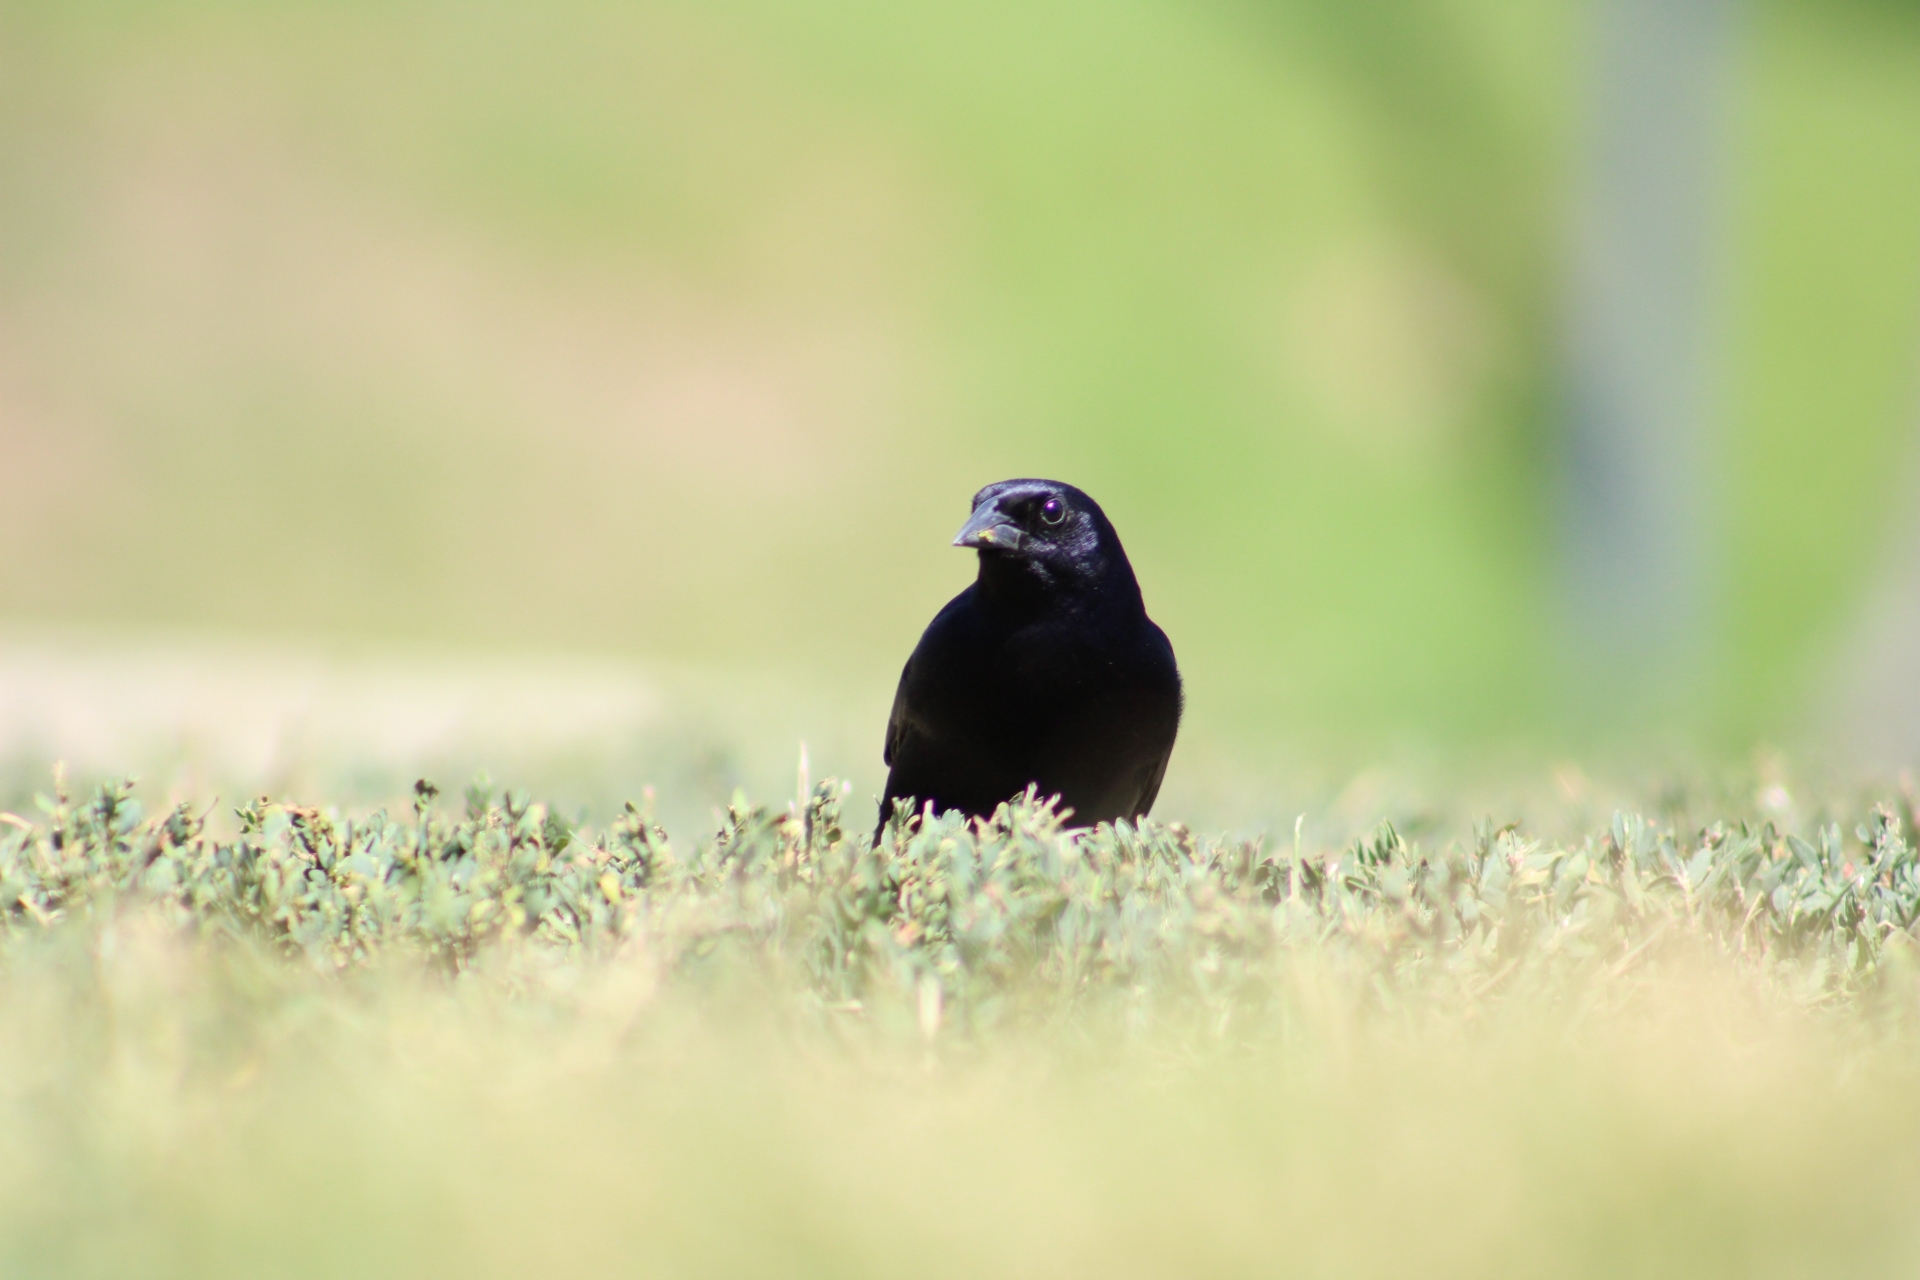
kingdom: Animalia
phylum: Chordata
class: Aves
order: Passeriformes
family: Icteridae
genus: Molothrus
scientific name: Molothrus bonariensis
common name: Shiny cowbird
